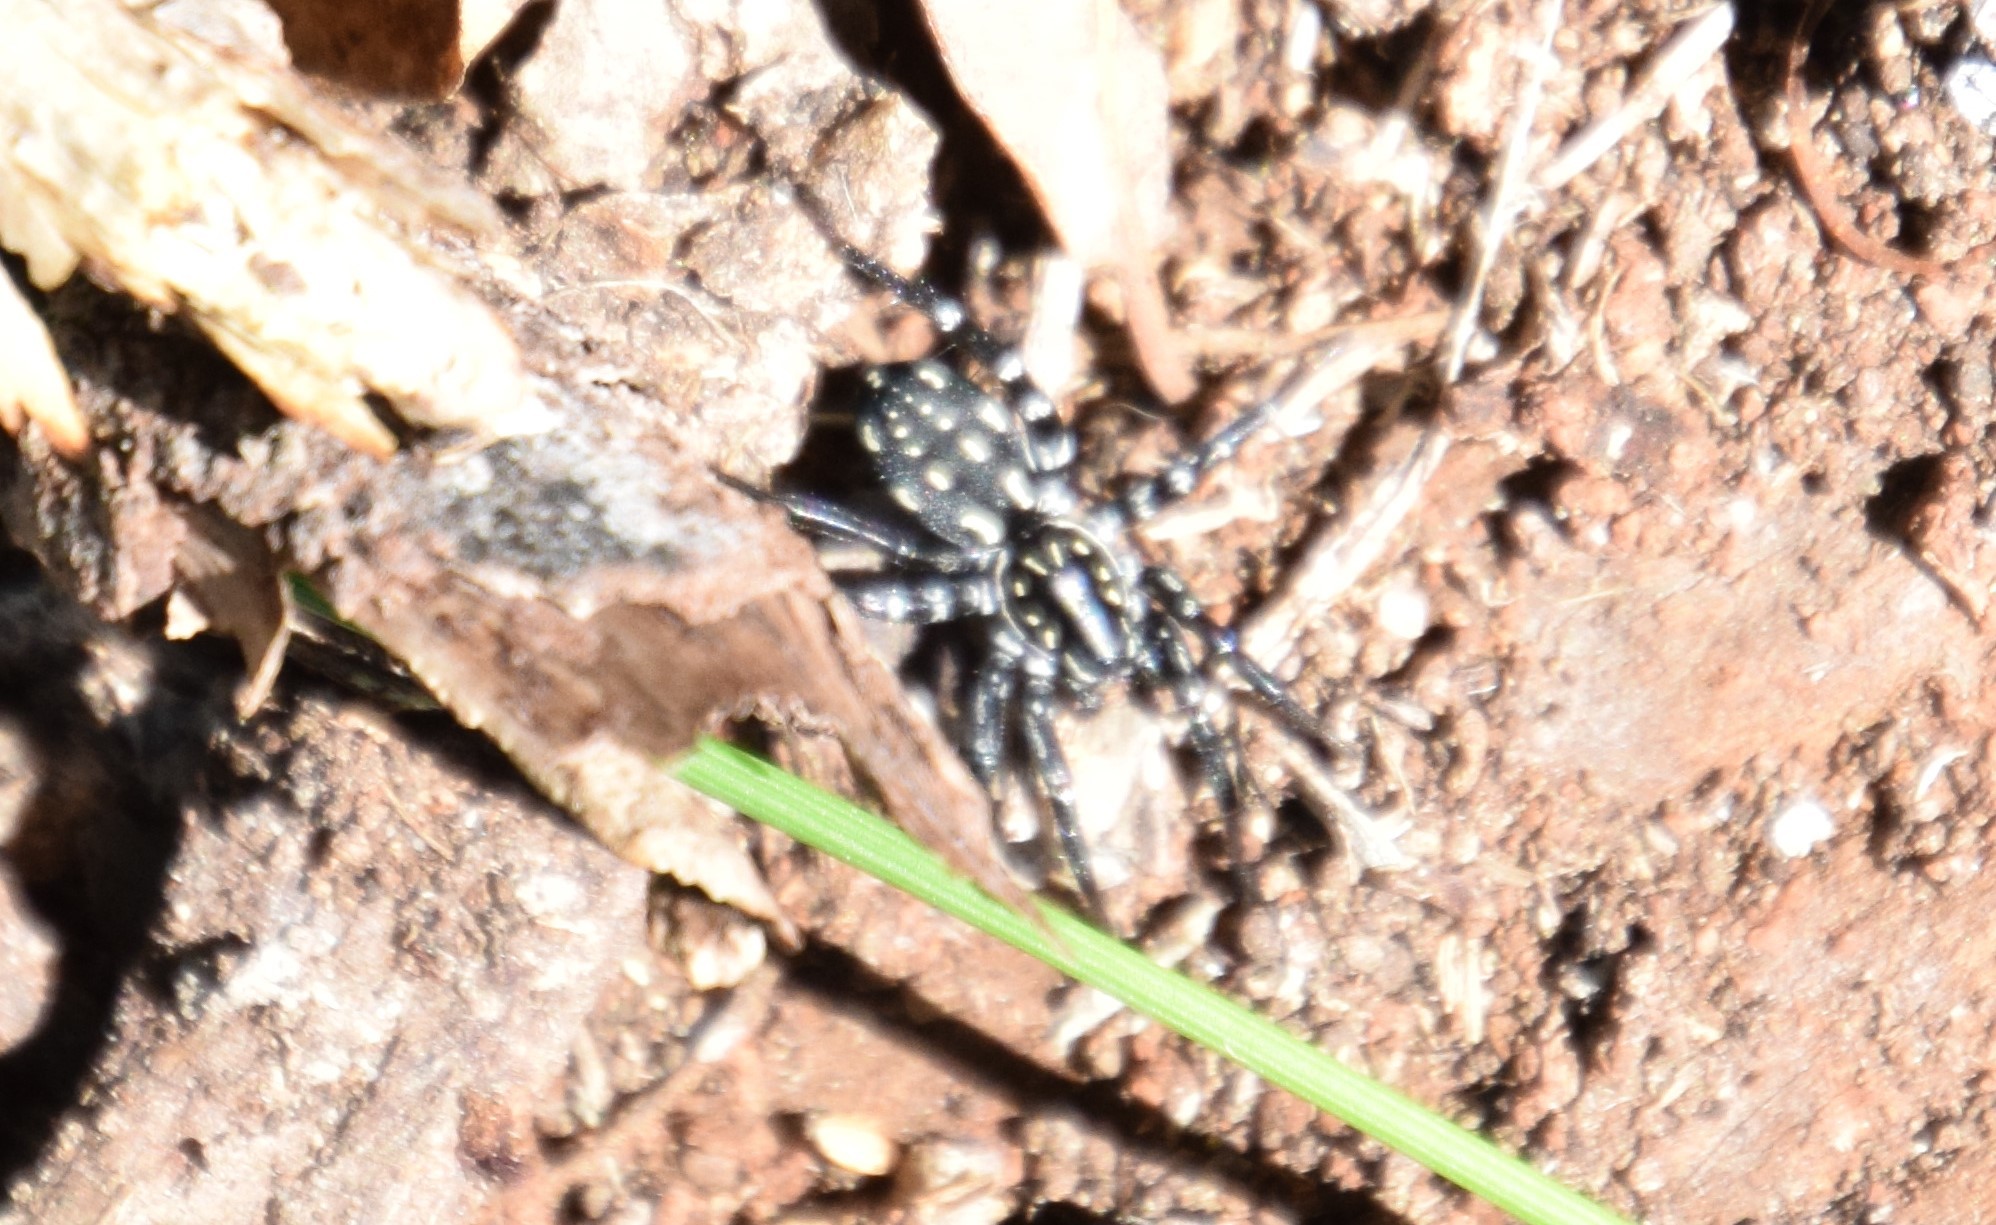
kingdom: Animalia
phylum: Arthropoda
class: Arachnida
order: Araneae
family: Corinnidae
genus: Nyssus
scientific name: Nyssus albopunctatus
